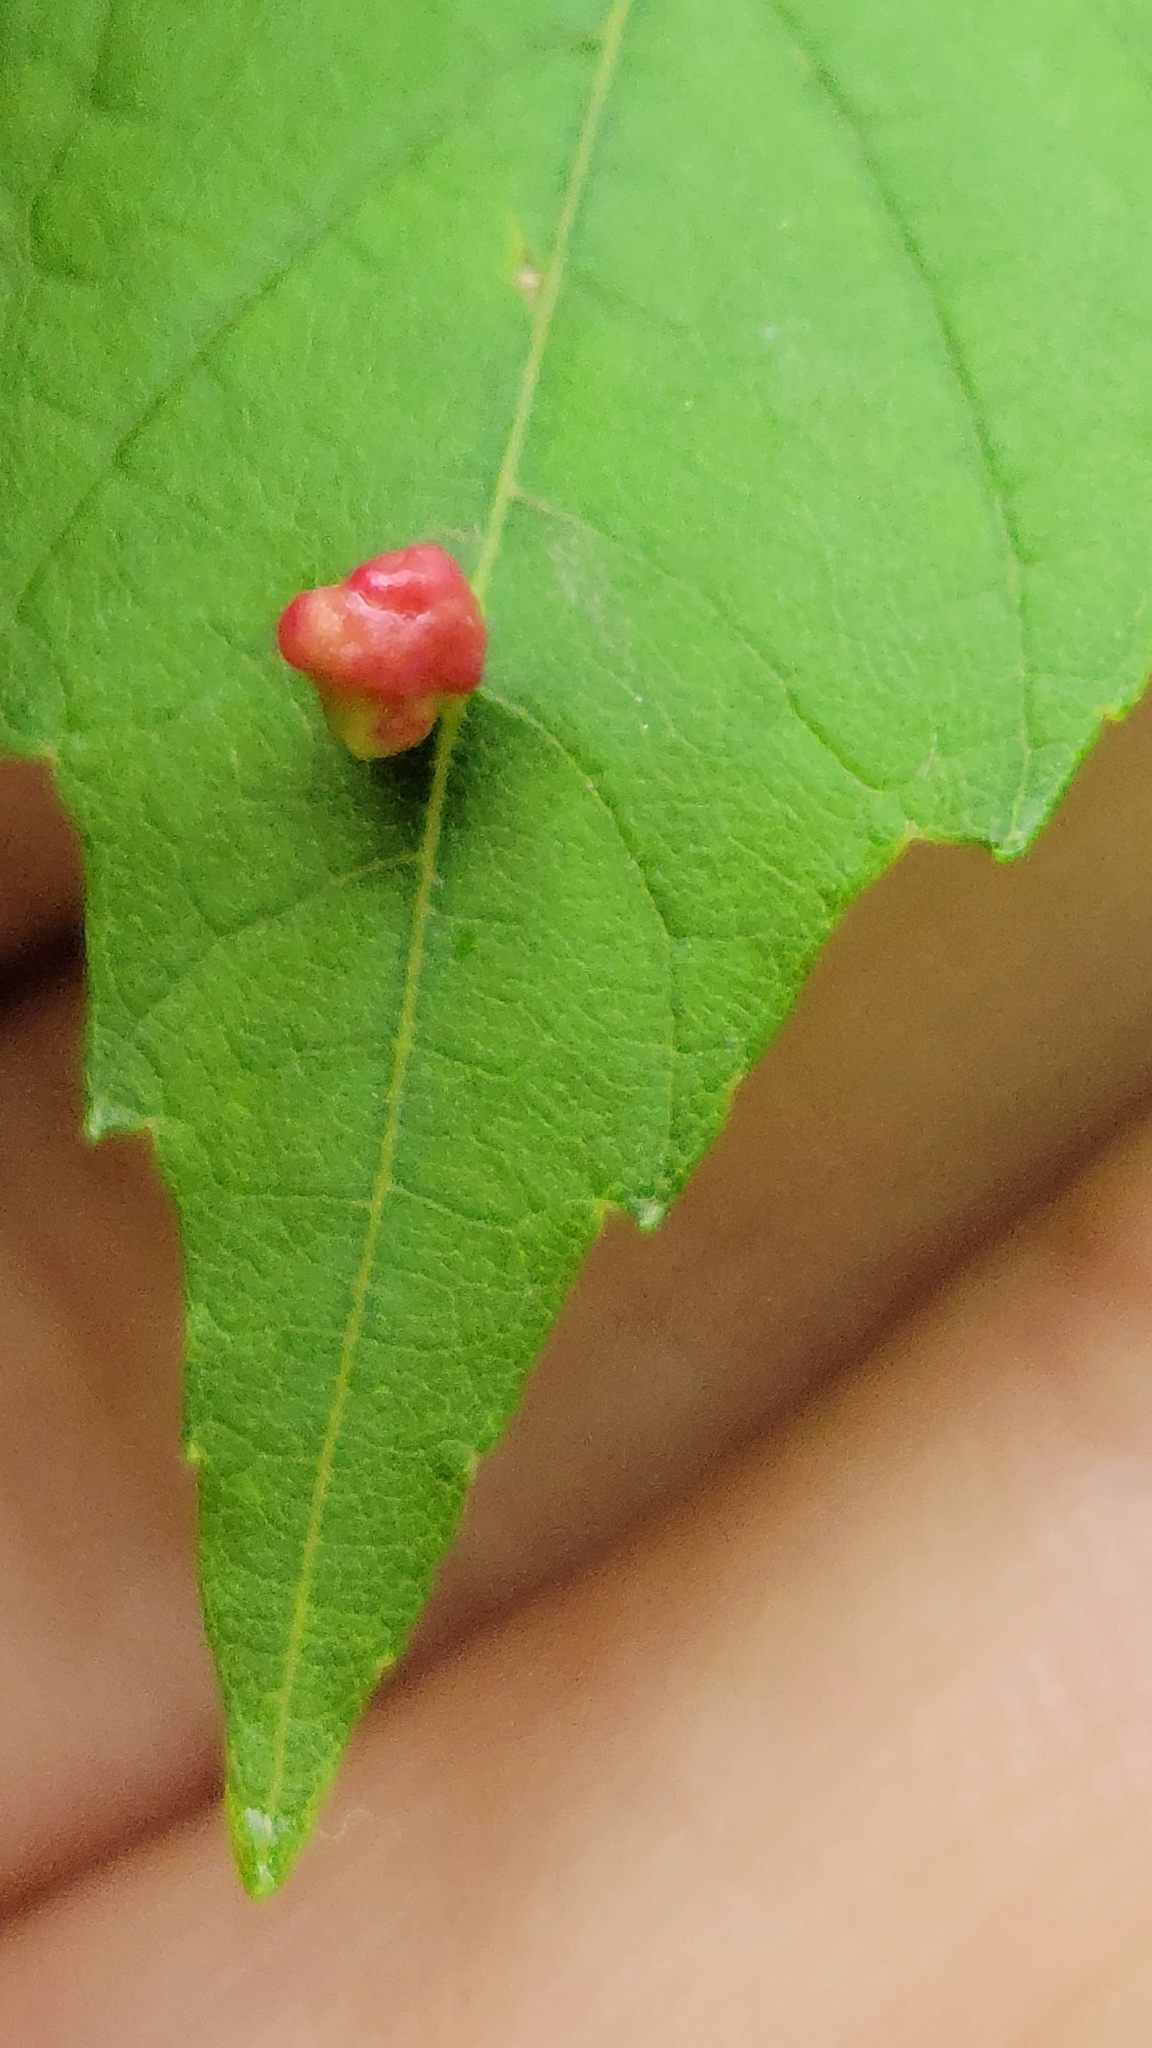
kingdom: Animalia
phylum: Arthropoda
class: Arachnida
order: Trombidiformes
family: Eriophyidae
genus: Vasates
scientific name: Vasates quadripedes
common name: Maple bladder gall mite
